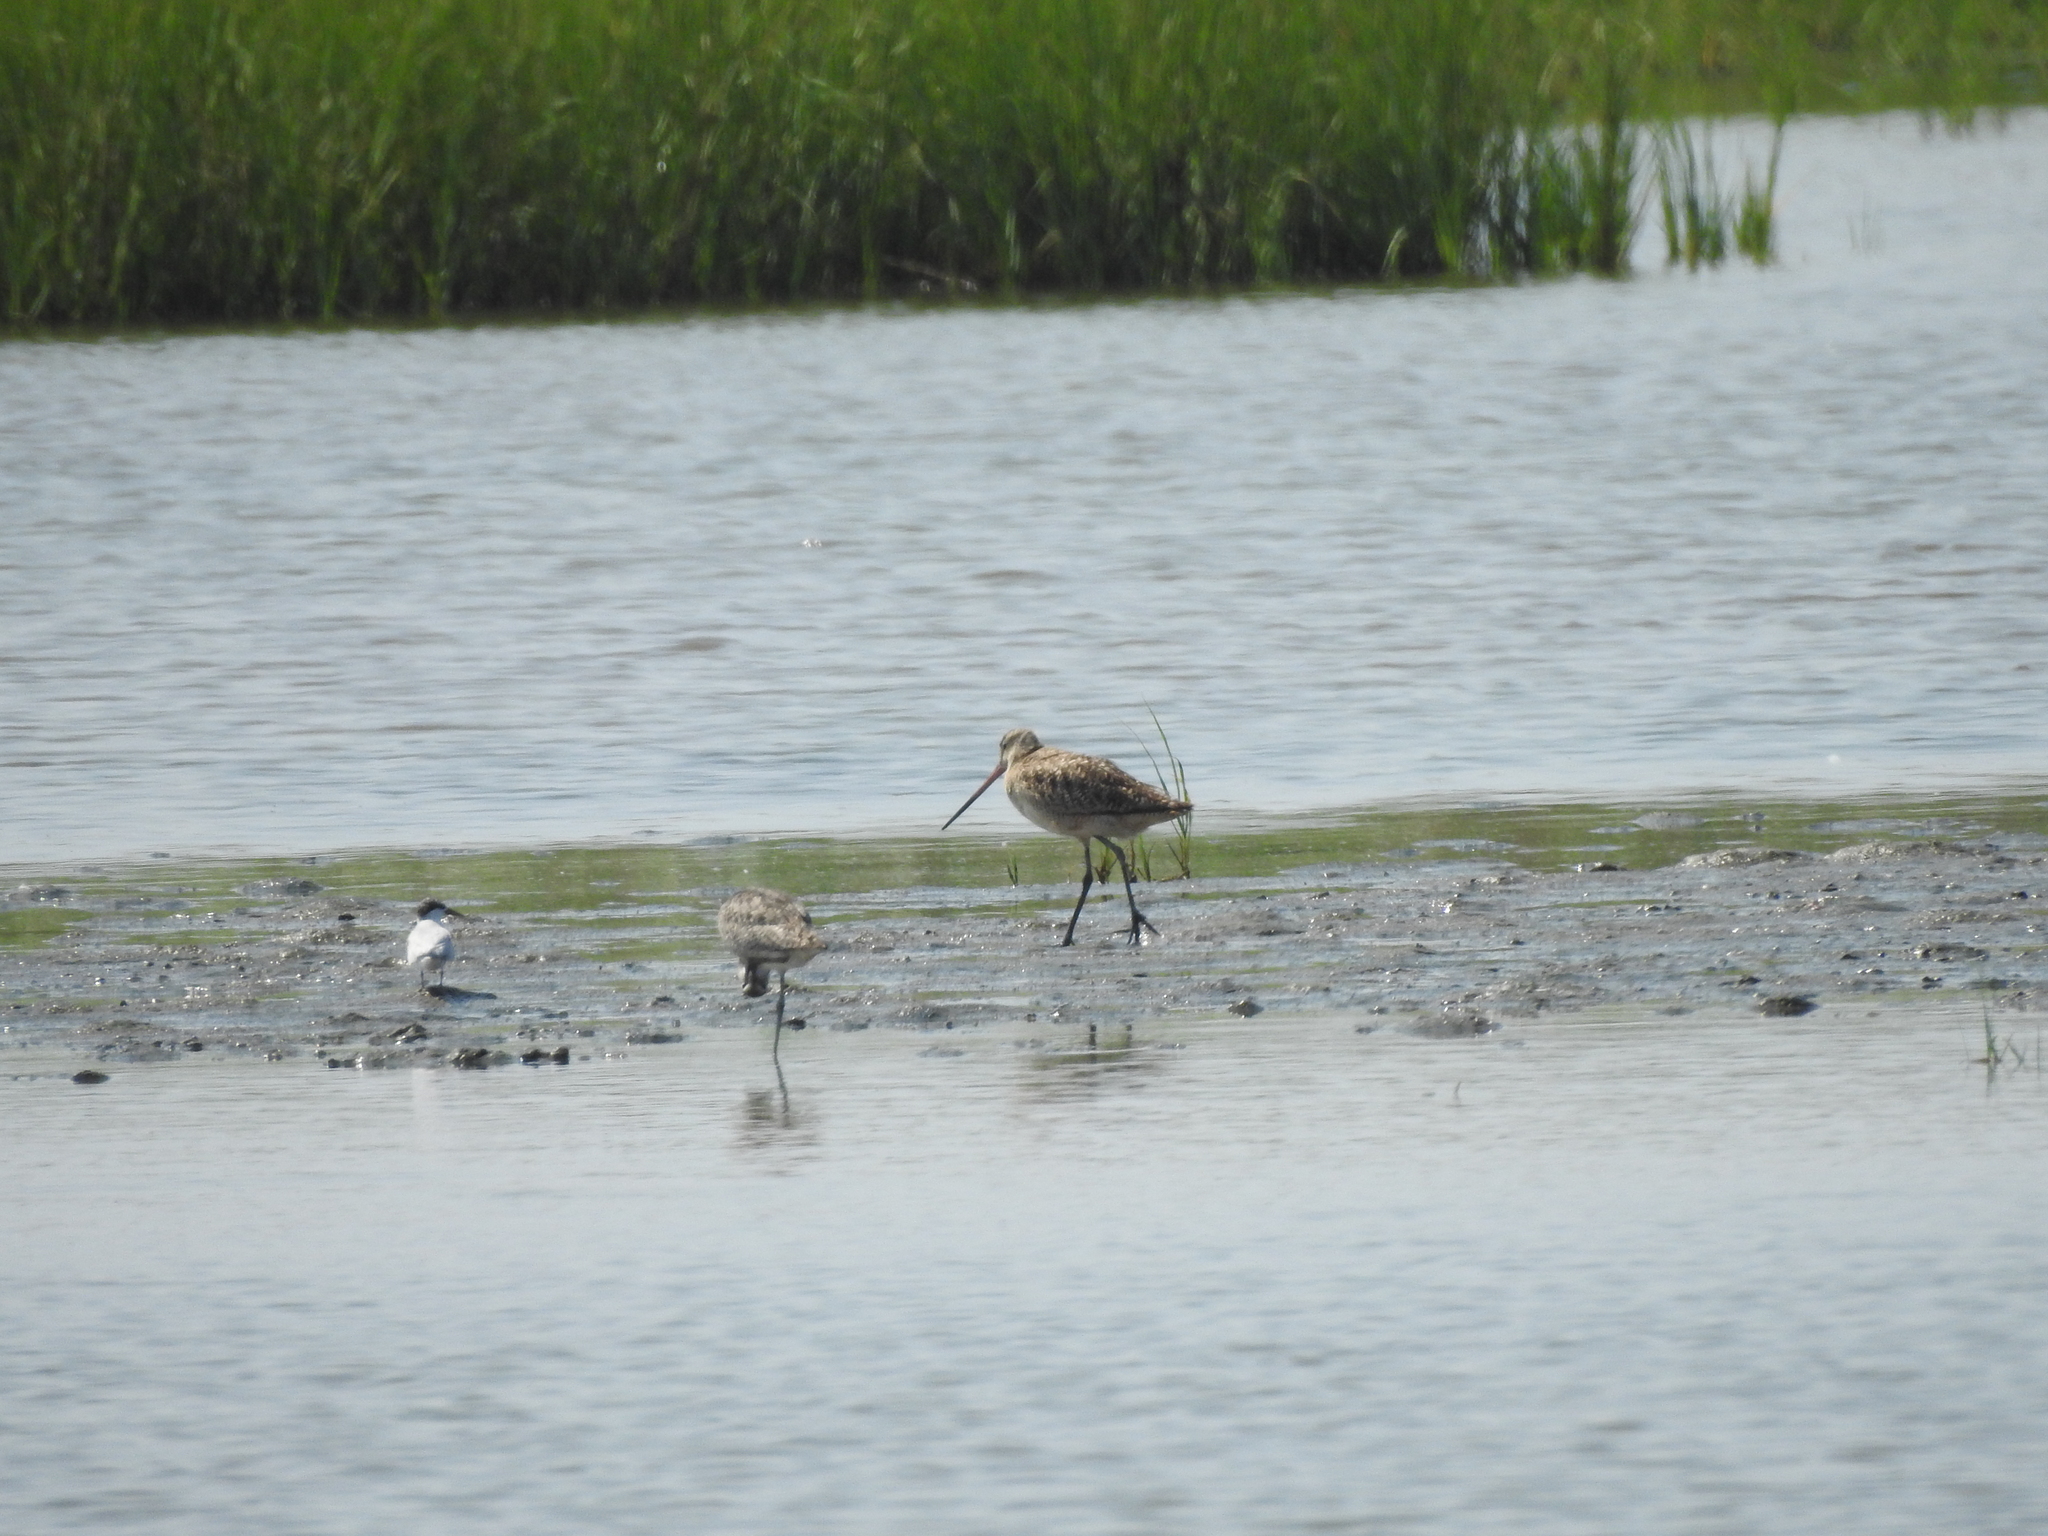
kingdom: Animalia
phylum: Chordata
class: Aves
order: Charadriiformes
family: Scolopacidae
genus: Limosa
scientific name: Limosa fedoa
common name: Marbled godwit
